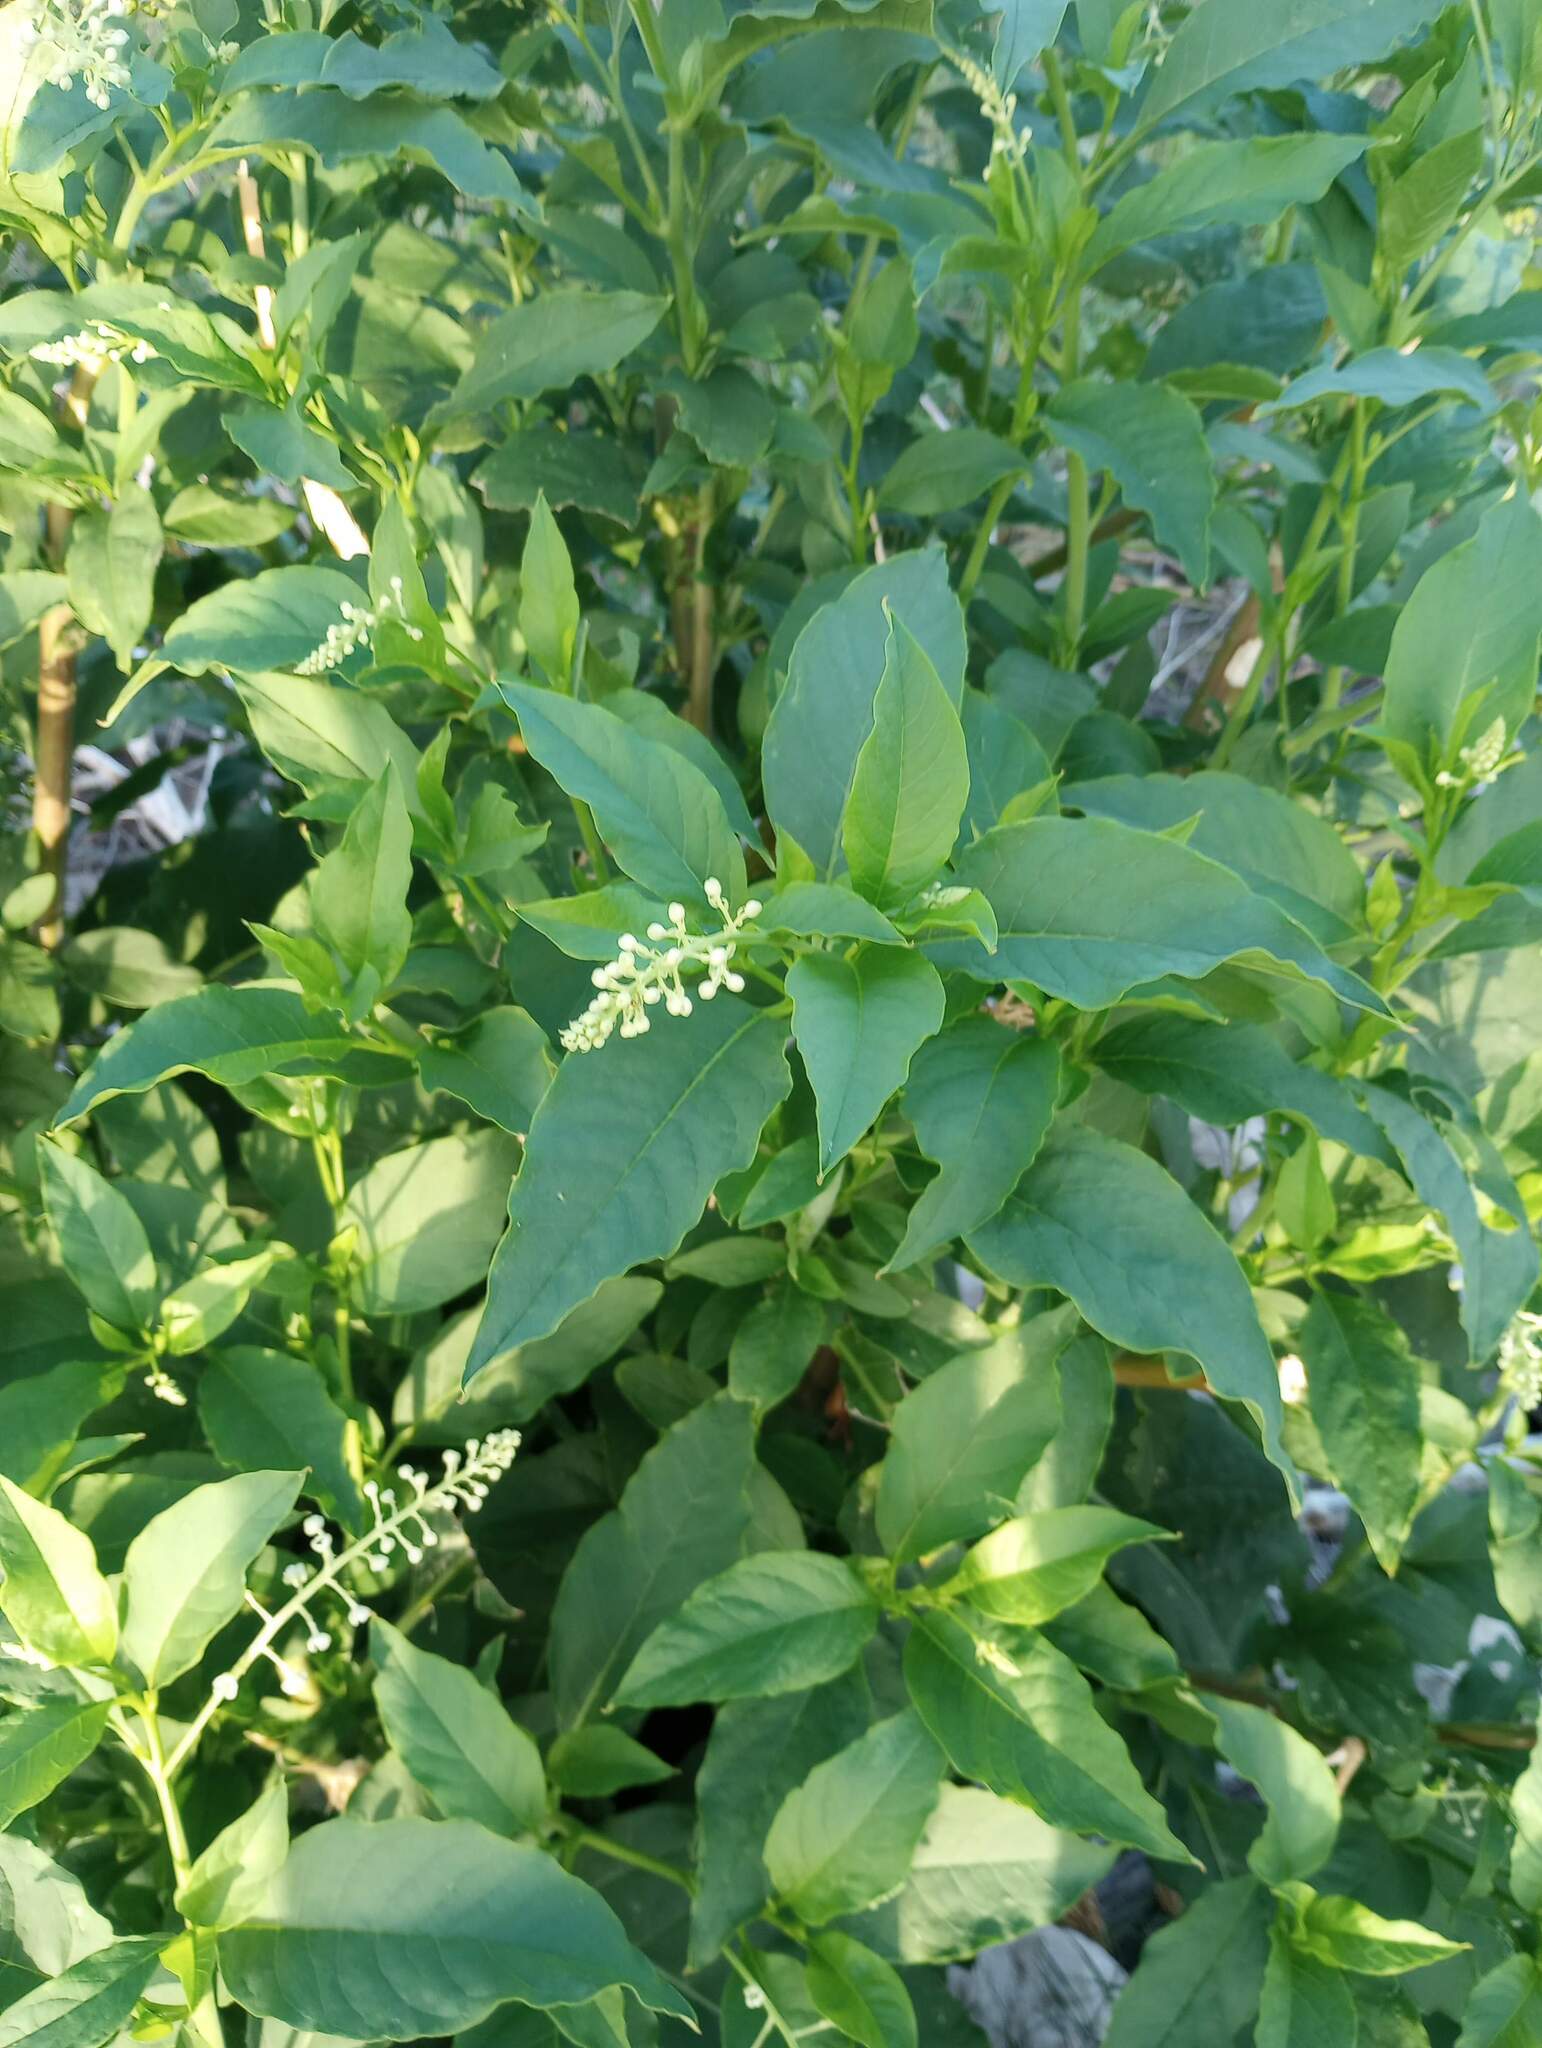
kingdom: Plantae
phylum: Tracheophyta
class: Magnoliopsida
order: Caryophyllales
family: Phytolaccaceae
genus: Phytolacca
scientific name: Phytolacca americana
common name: American pokeweed
